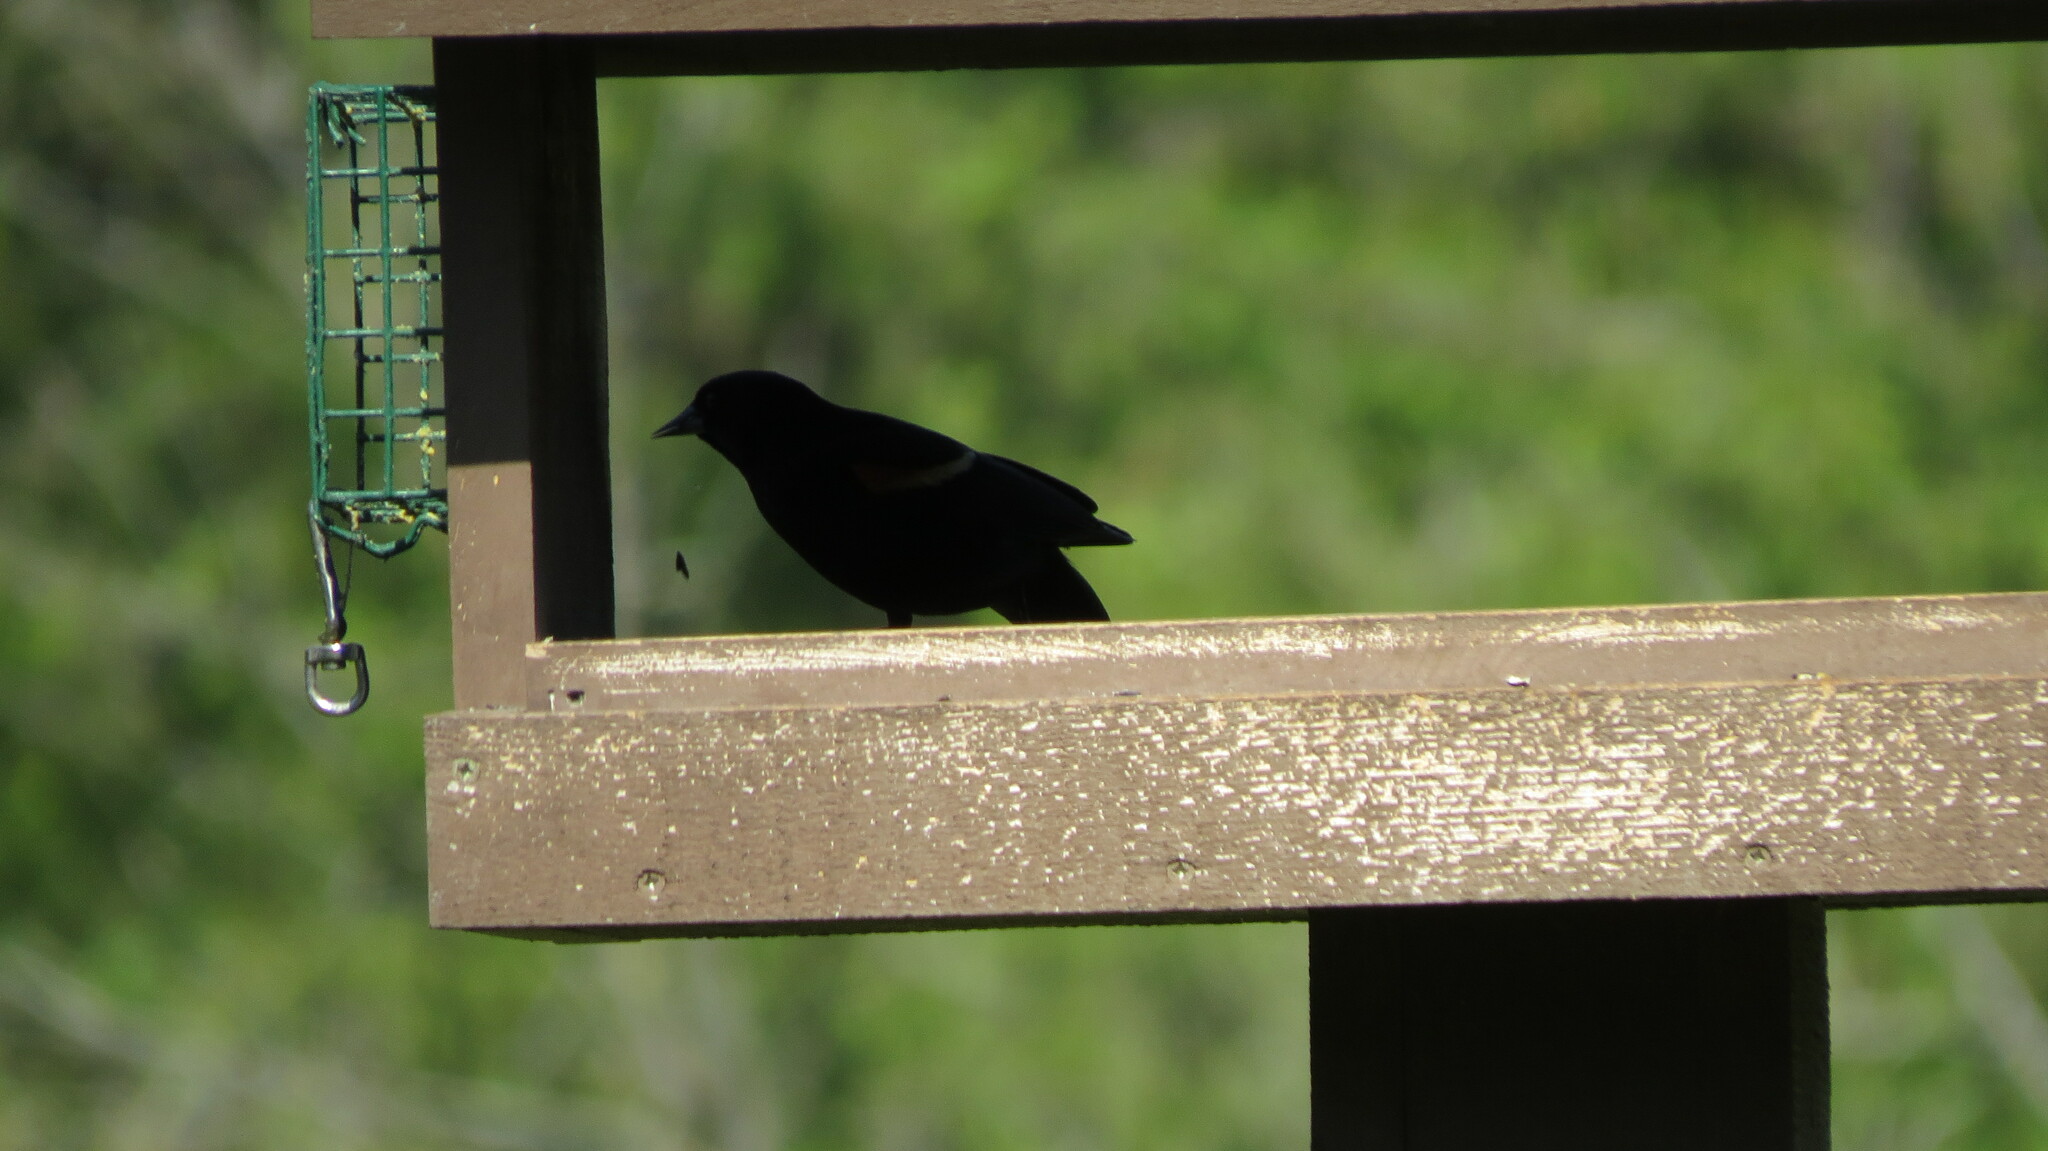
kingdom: Animalia
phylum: Chordata
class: Aves
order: Passeriformes
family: Icteridae
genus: Agelaius
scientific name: Agelaius phoeniceus
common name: Red-winged blackbird
